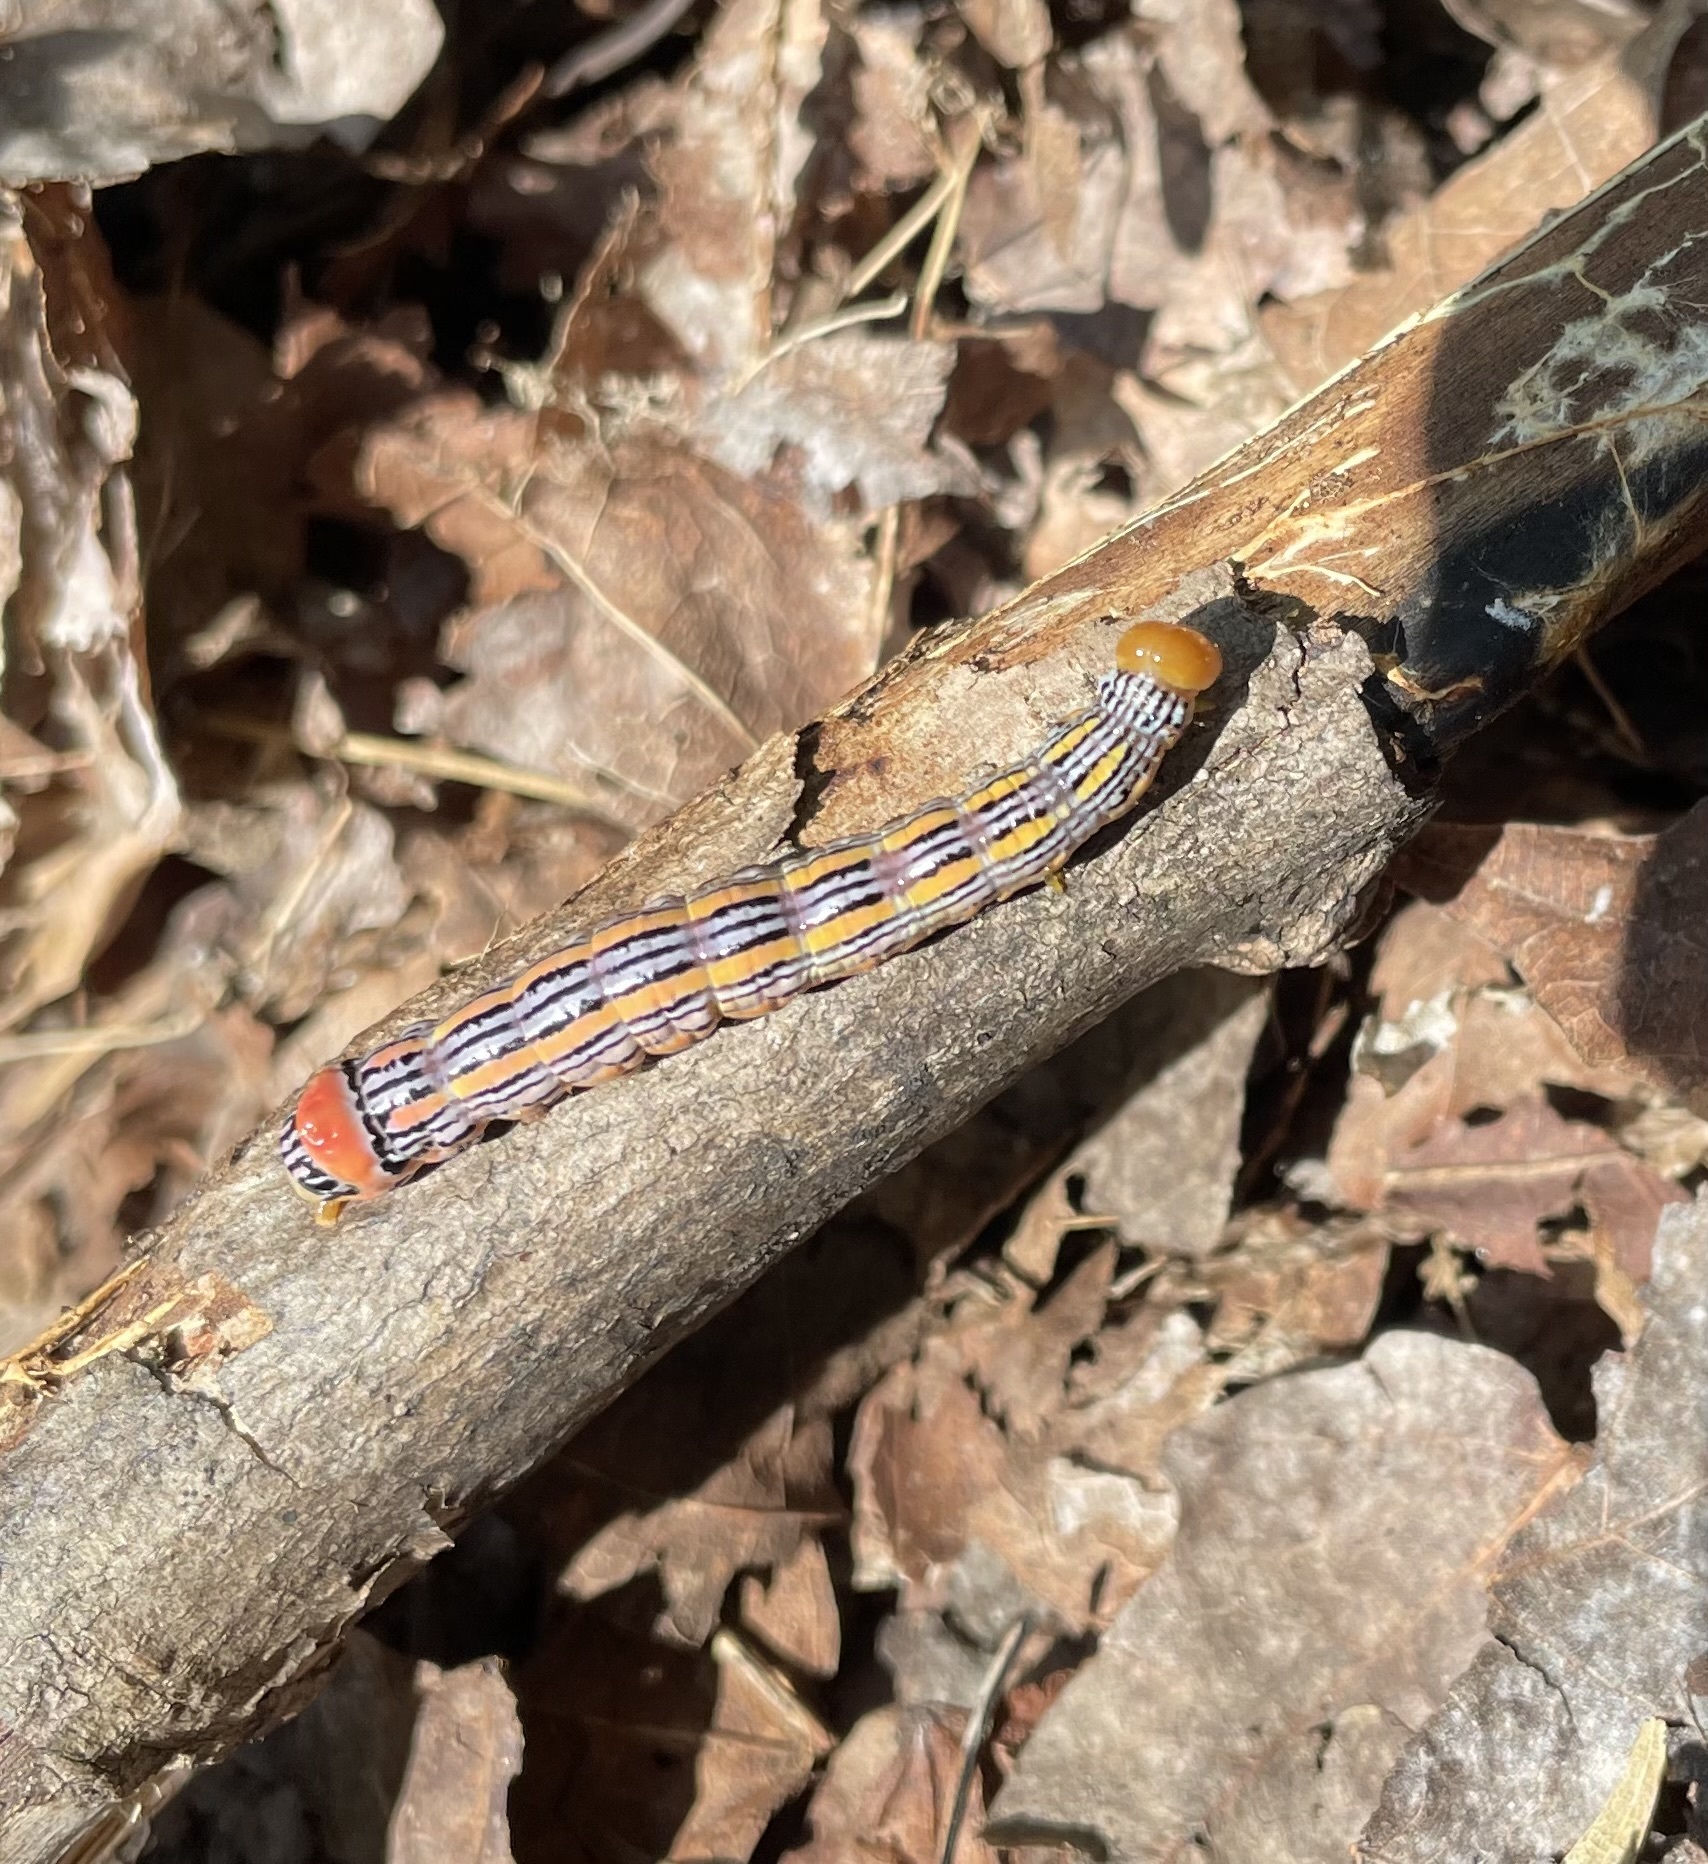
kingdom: Animalia
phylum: Arthropoda
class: Insecta
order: Lepidoptera
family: Notodontidae
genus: Symmerista
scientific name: Symmerista leucitys
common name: Orange-humped mapleworm
